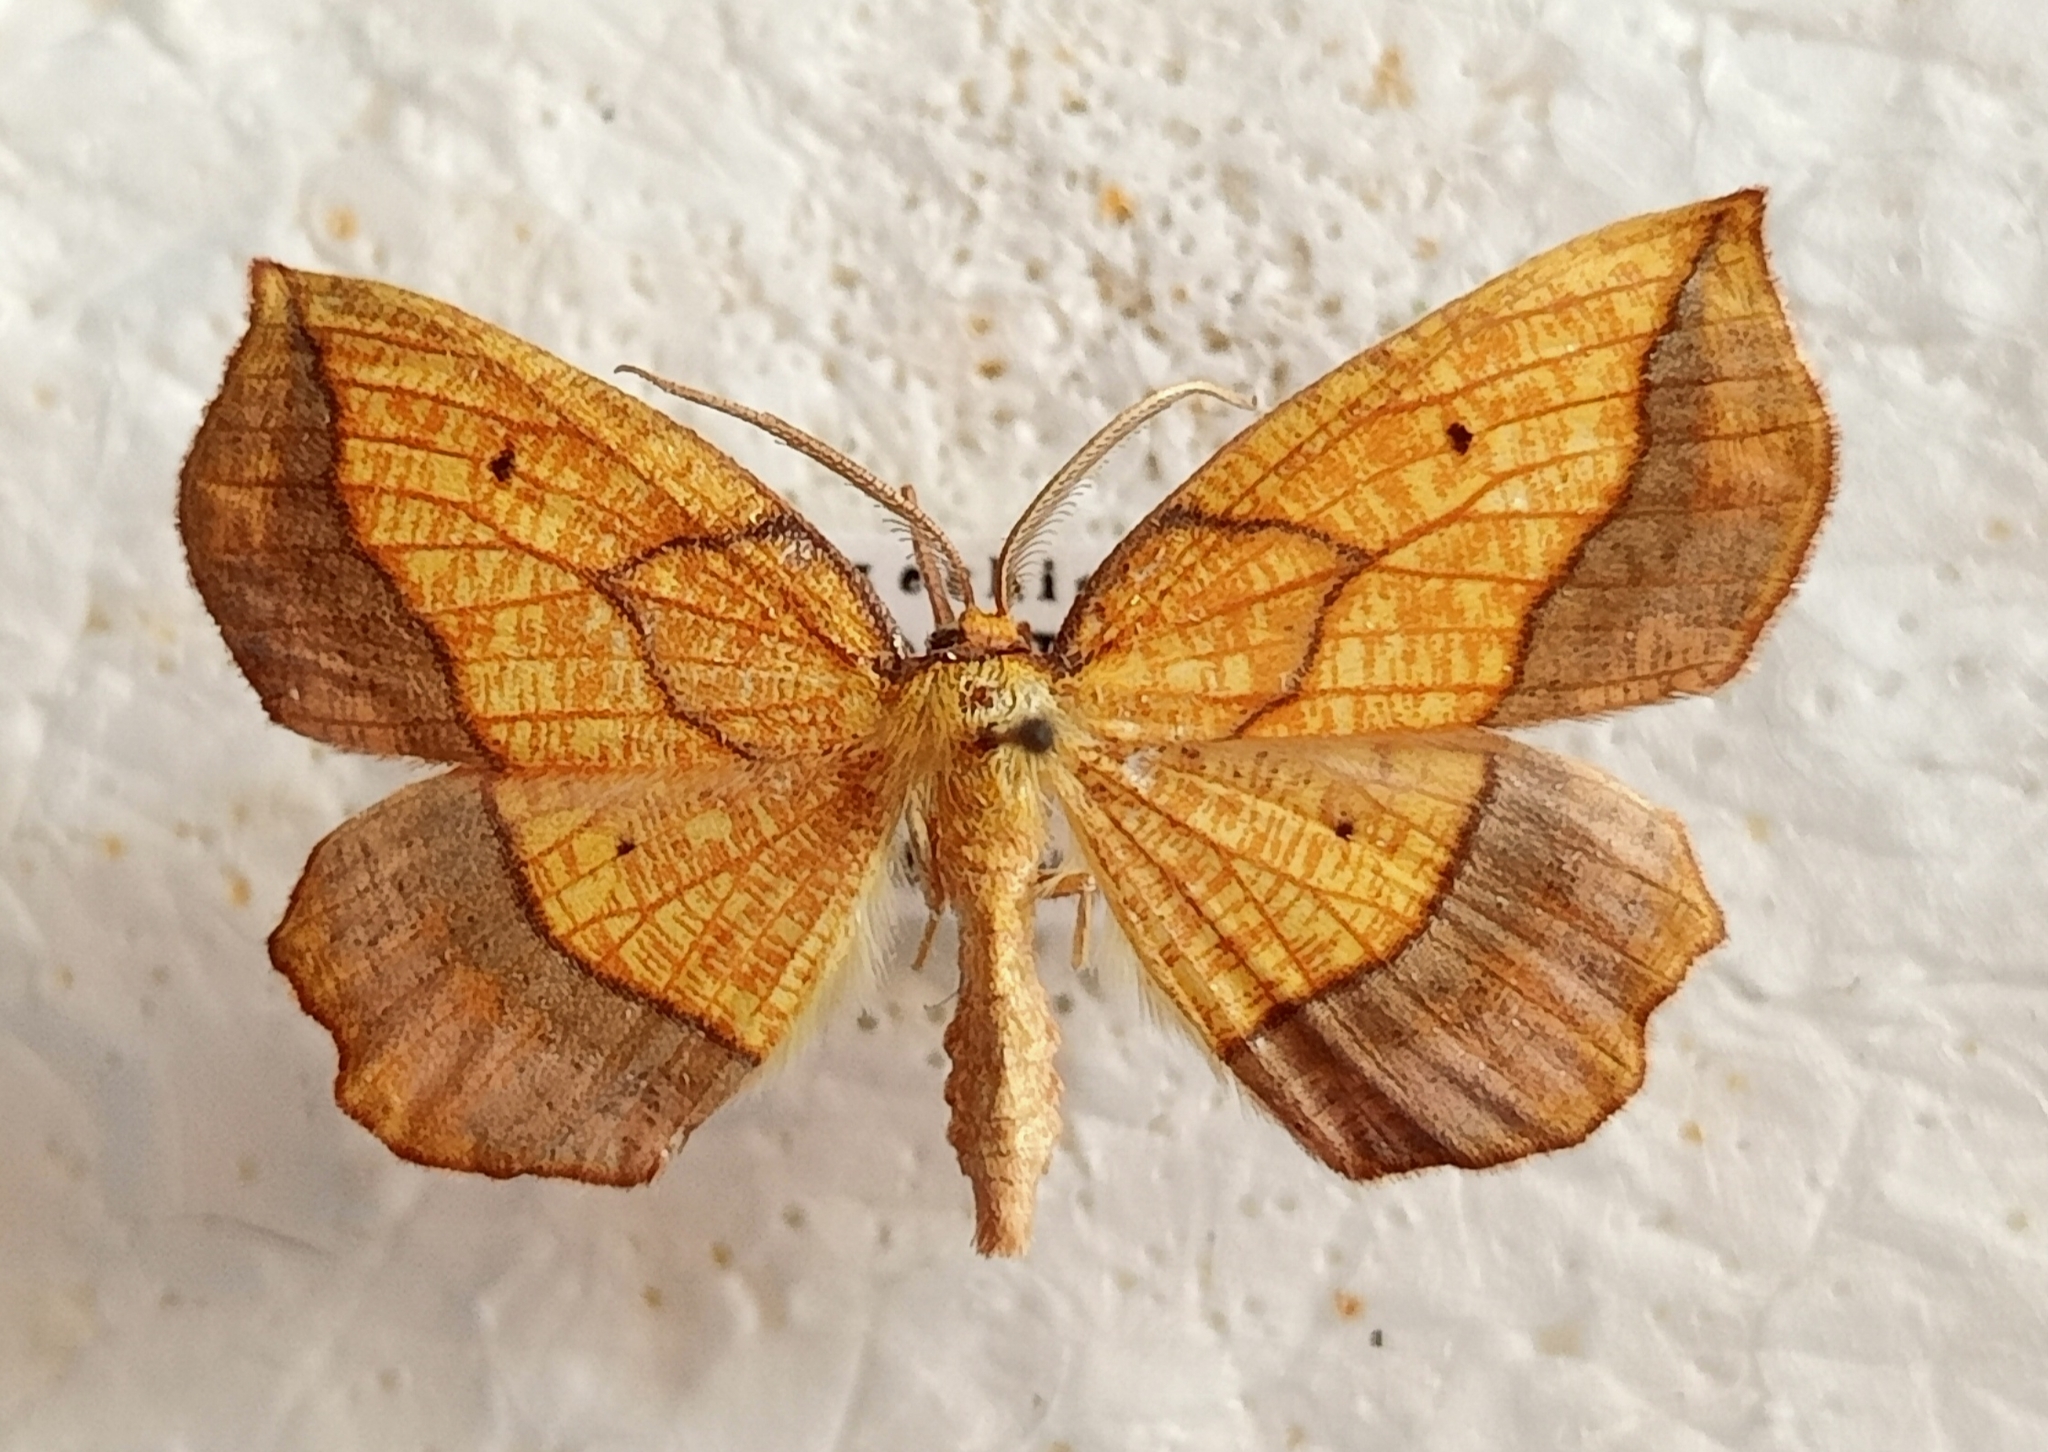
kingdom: Animalia
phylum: Arthropoda
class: Insecta
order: Lepidoptera
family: Geometridae
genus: Epione
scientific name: Epione repandaria
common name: Bordered beauty
